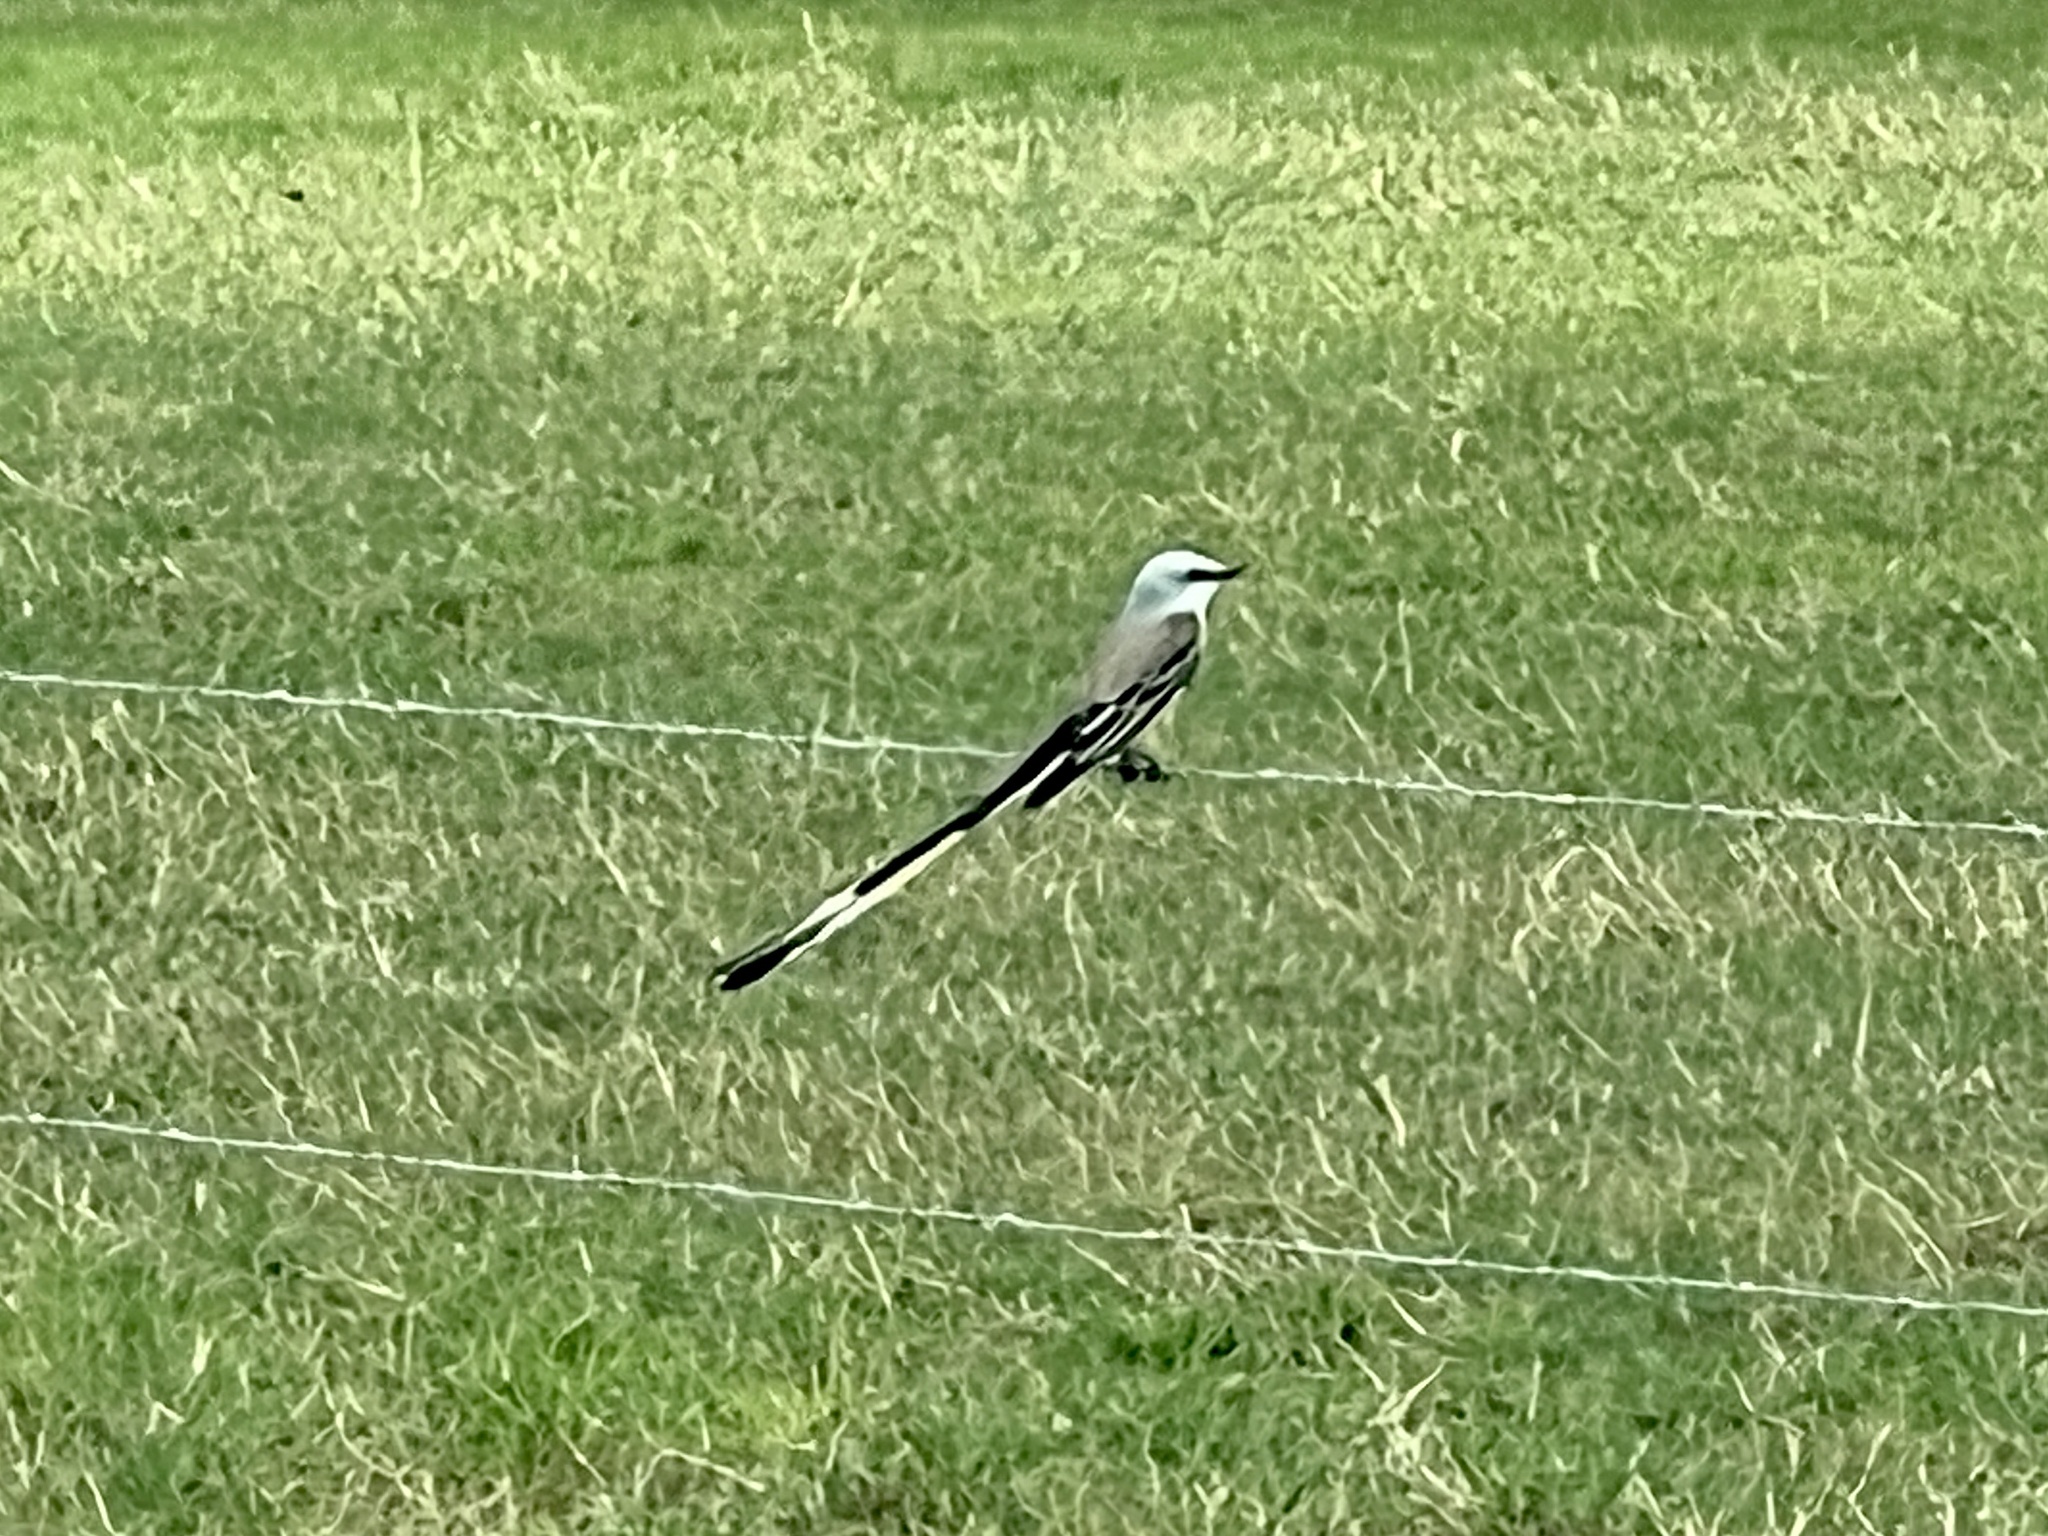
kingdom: Animalia
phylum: Chordata
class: Aves
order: Passeriformes
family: Tyrannidae
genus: Tyrannus
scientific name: Tyrannus forficatus
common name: Scissor-tailed flycatcher
